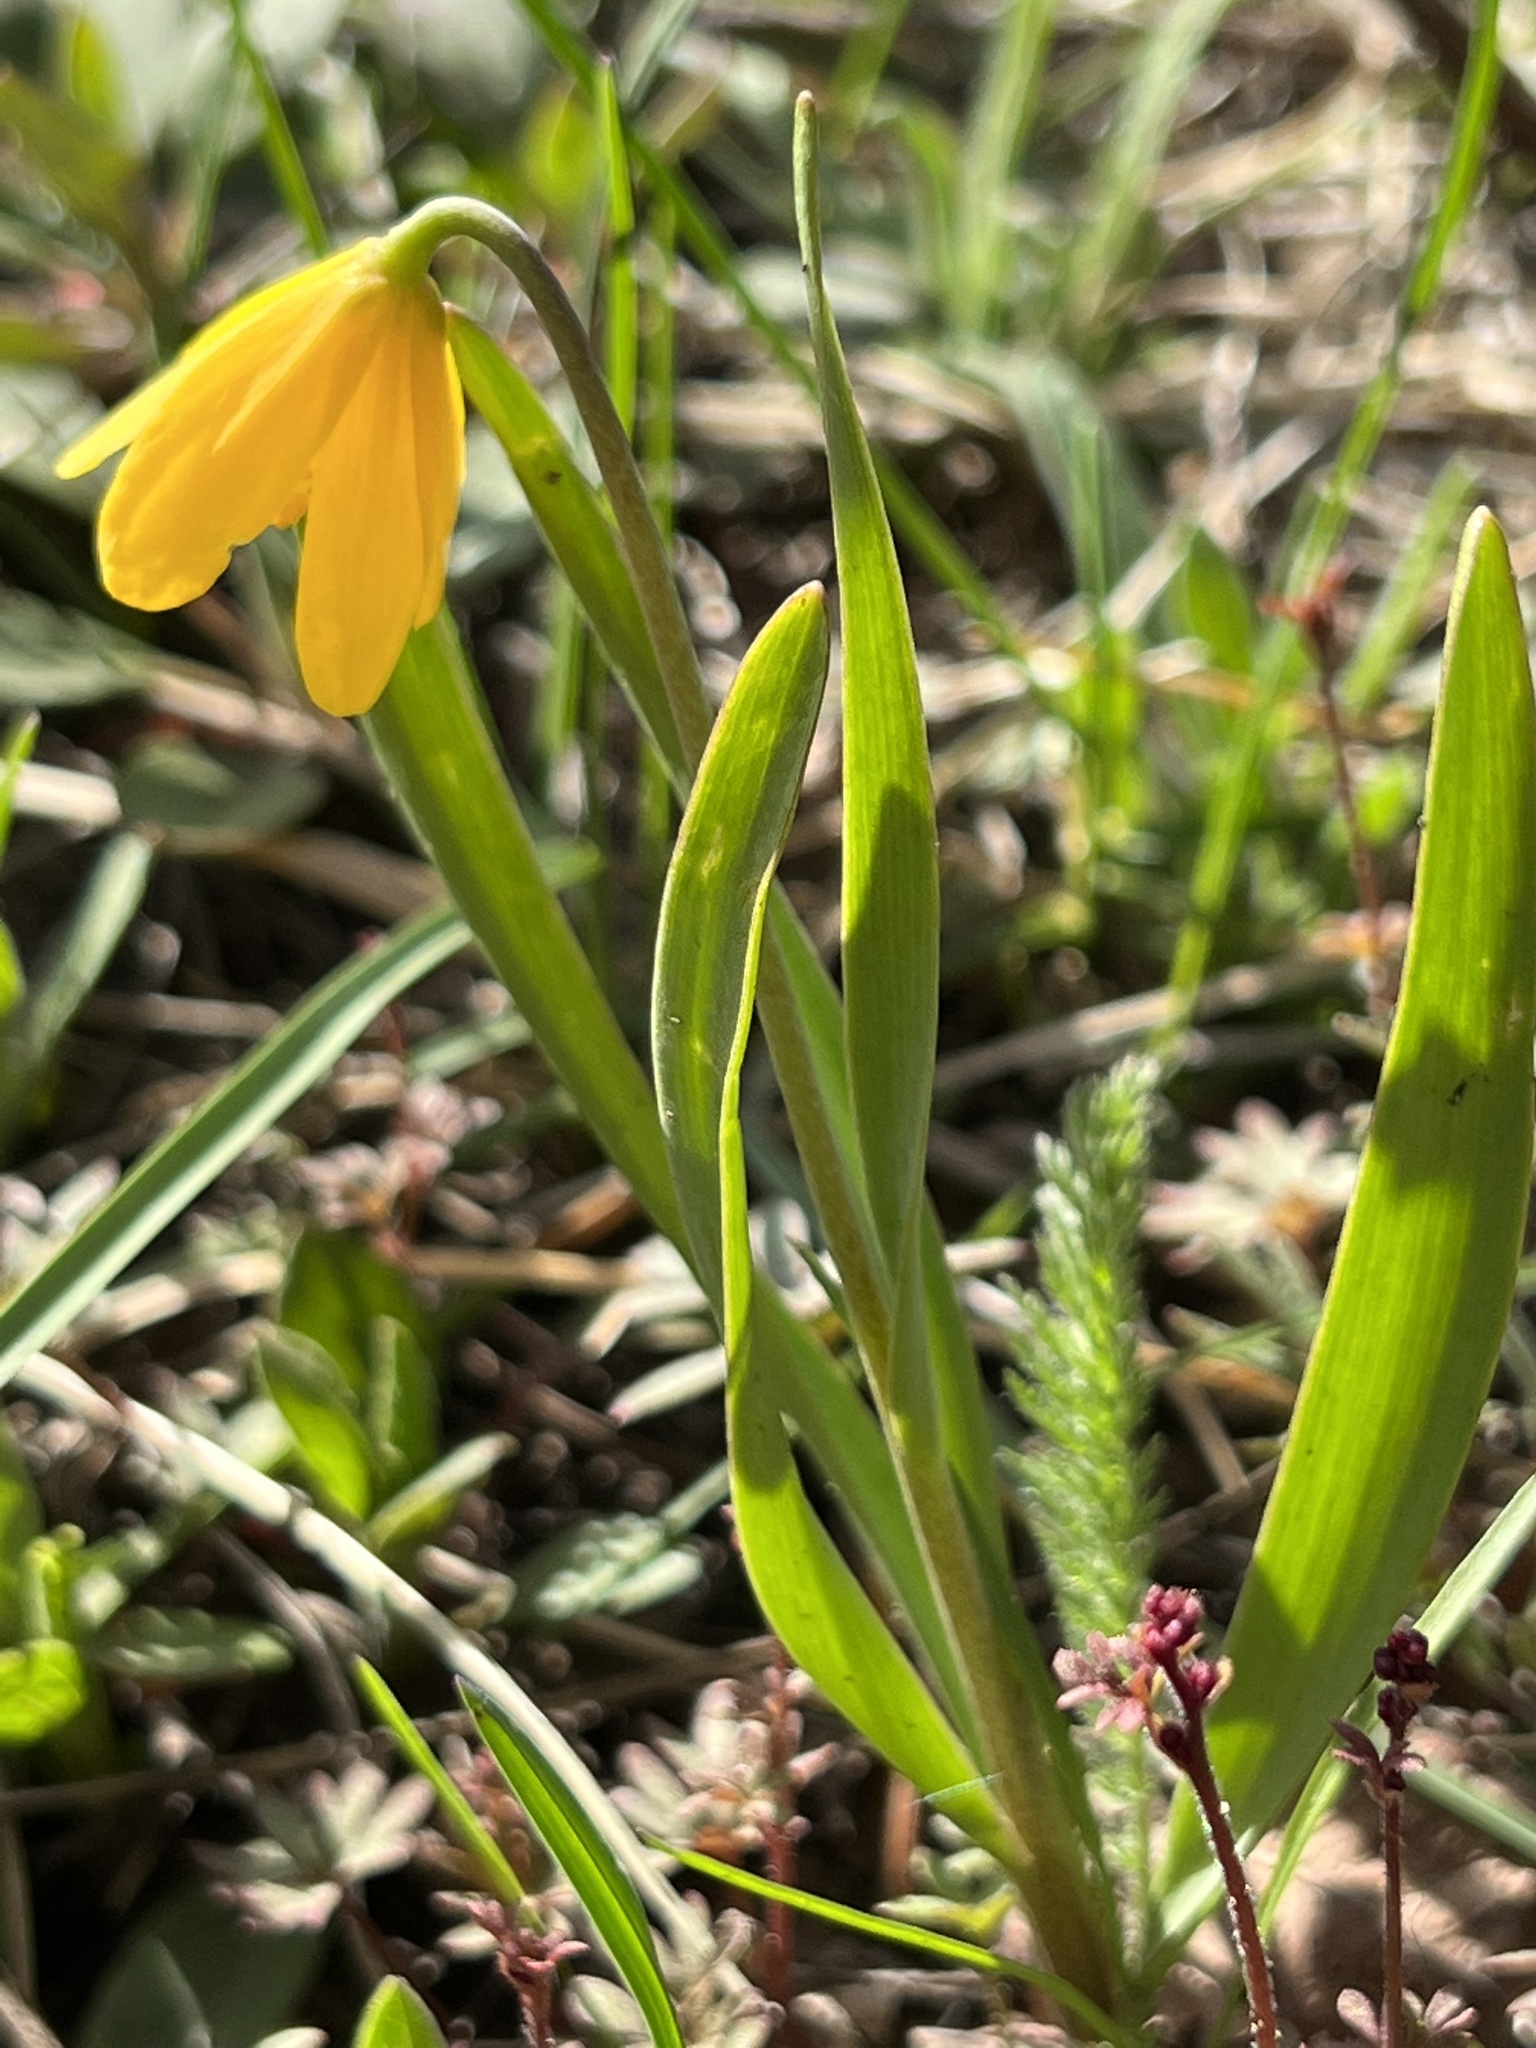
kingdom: Plantae
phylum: Tracheophyta
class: Liliopsida
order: Liliales
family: Liliaceae
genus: Fritillaria
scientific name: Fritillaria pudica
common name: Yellow fritillary
